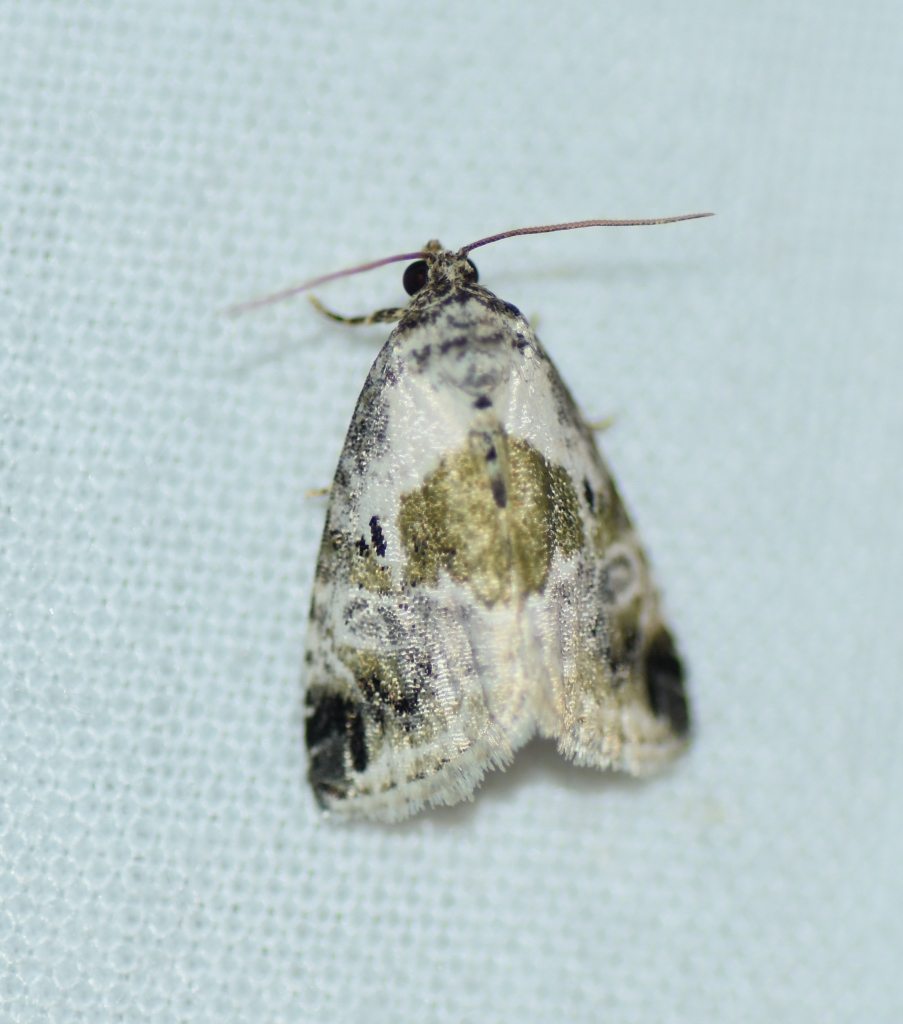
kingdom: Animalia
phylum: Arthropoda
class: Insecta
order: Lepidoptera
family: Noctuidae
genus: Maliattha
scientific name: Maliattha synochitis
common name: Black-dotted glyph
